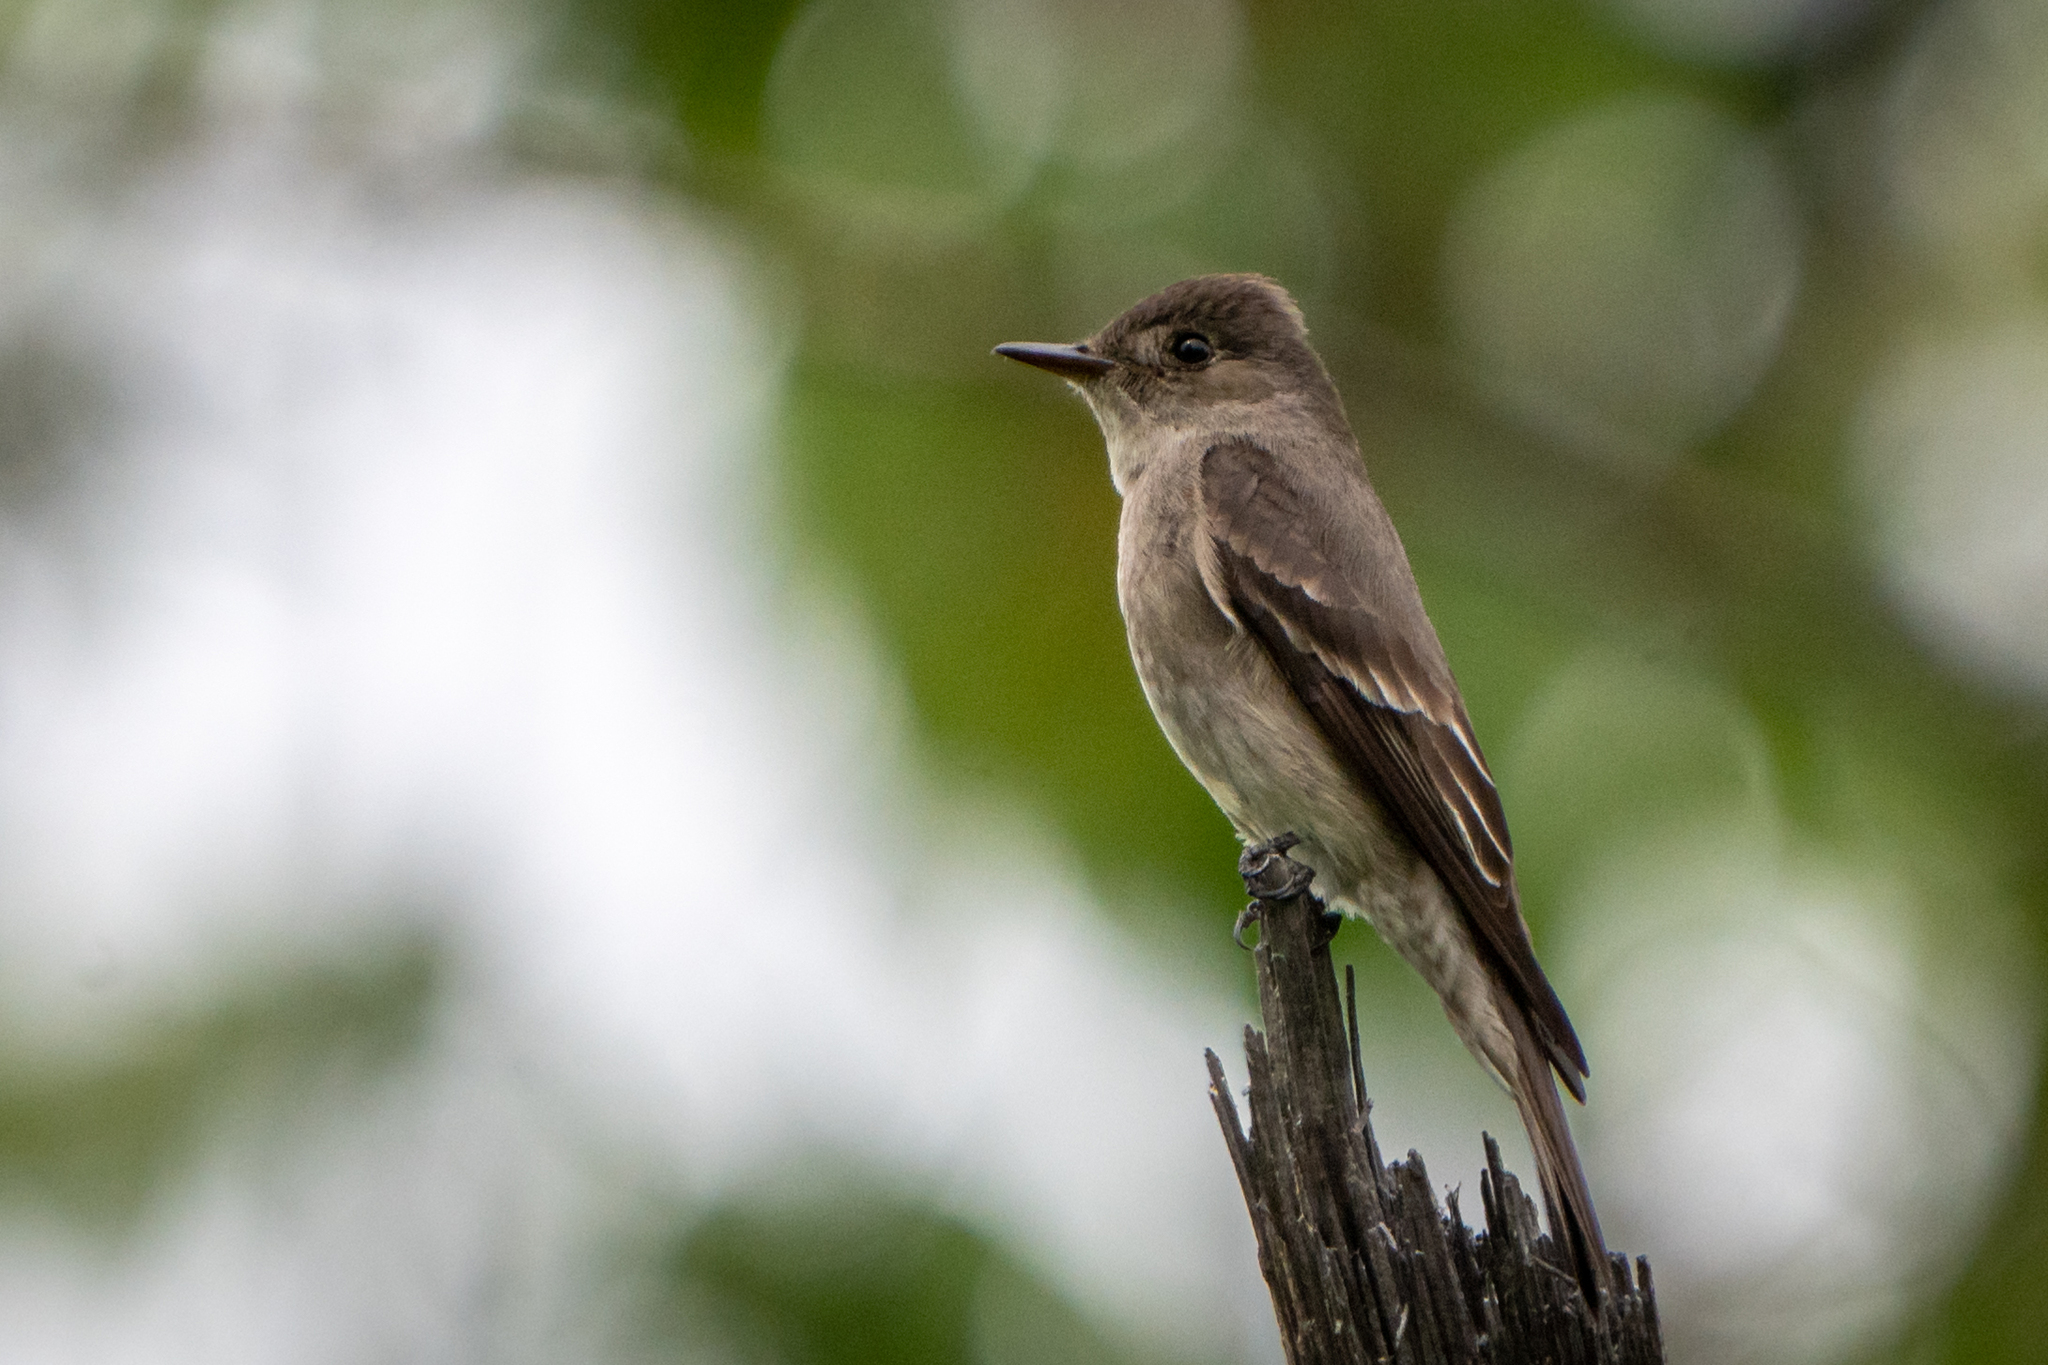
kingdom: Animalia
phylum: Chordata
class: Aves
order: Passeriformes
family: Tyrannidae
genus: Contopus
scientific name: Contopus sordidulus
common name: Western wood-pewee
